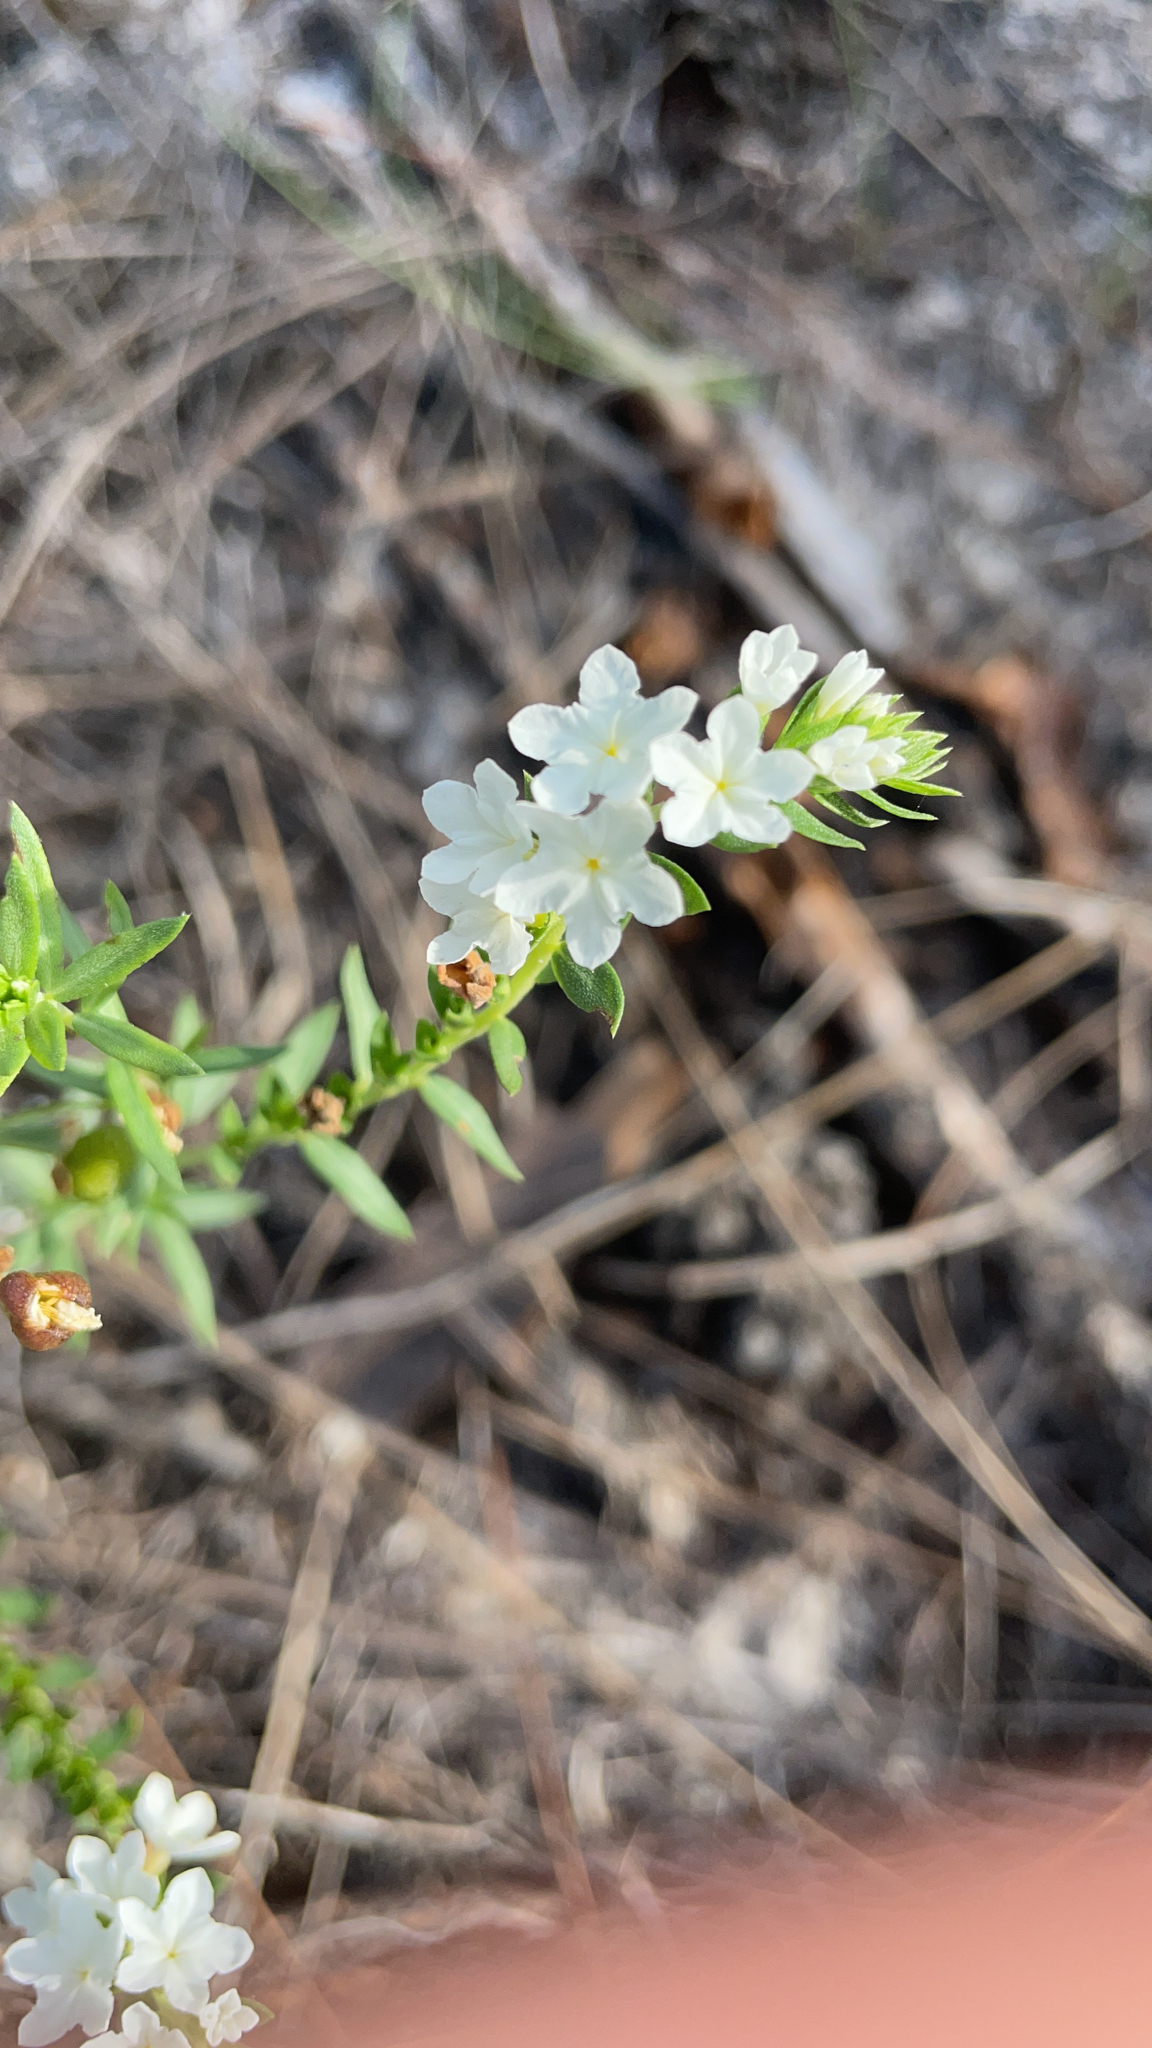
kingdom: Plantae
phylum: Tracheophyta
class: Magnoliopsida
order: Boraginales
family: Heliotropiaceae
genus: Euploca
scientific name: Euploca polyphylla
